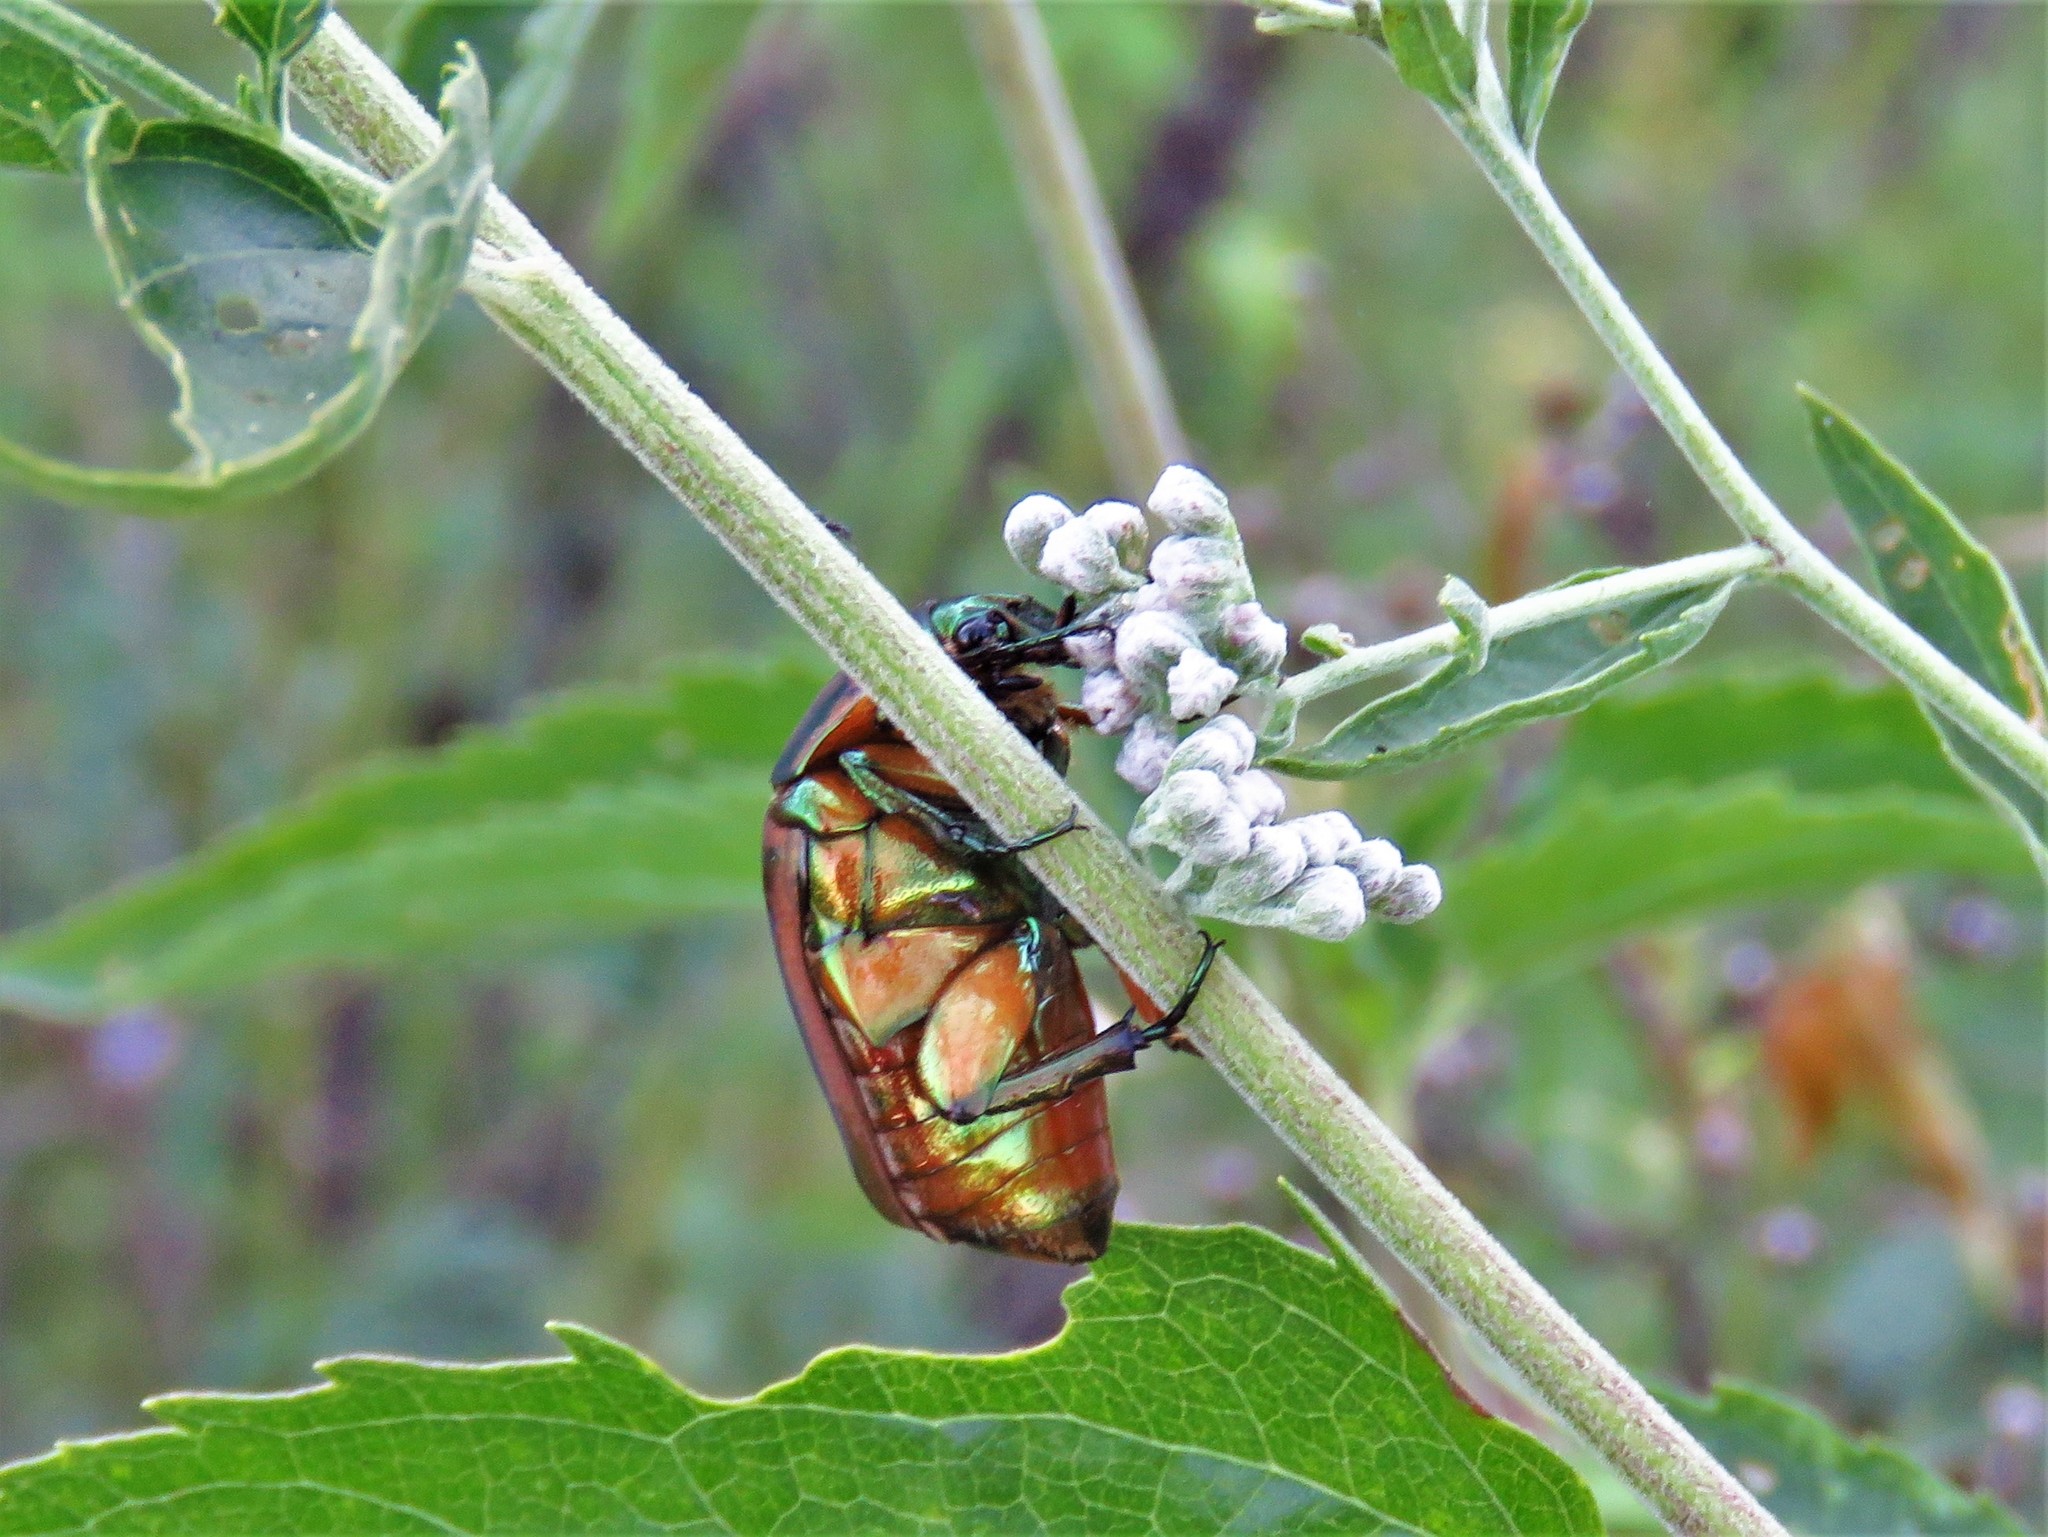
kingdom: Animalia
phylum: Arthropoda
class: Insecta
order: Coleoptera
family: Scarabaeidae
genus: Cotinis
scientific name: Cotinis nitida
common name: Common green june beetle
